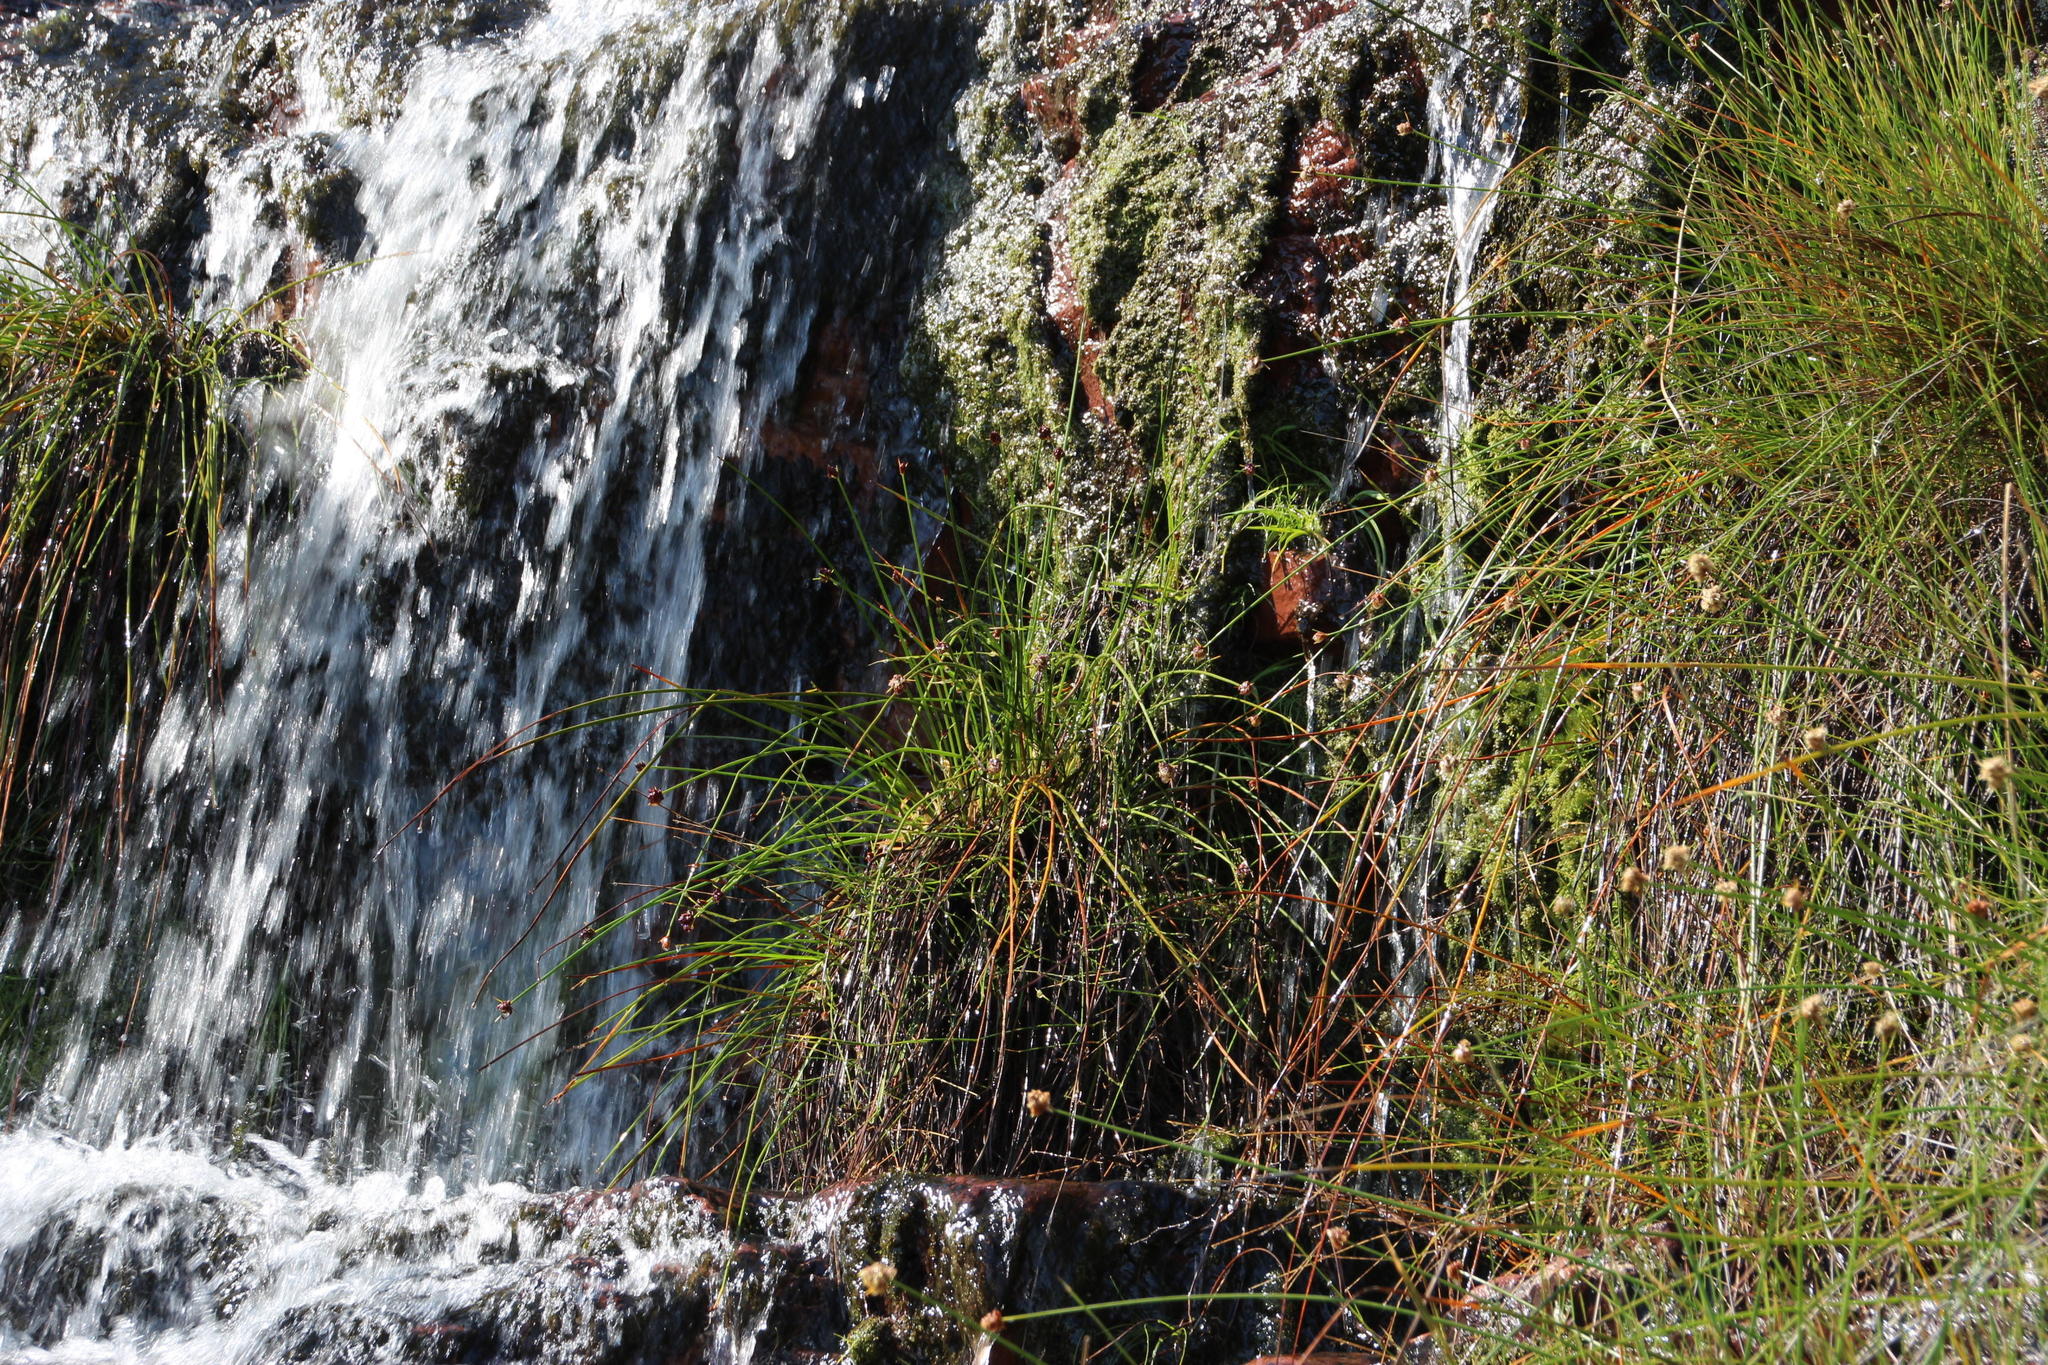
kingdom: Plantae
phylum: Tracheophyta
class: Liliopsida
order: Poales
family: Cyperaceae
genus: Ficinia
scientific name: Ficinia brevifolia
